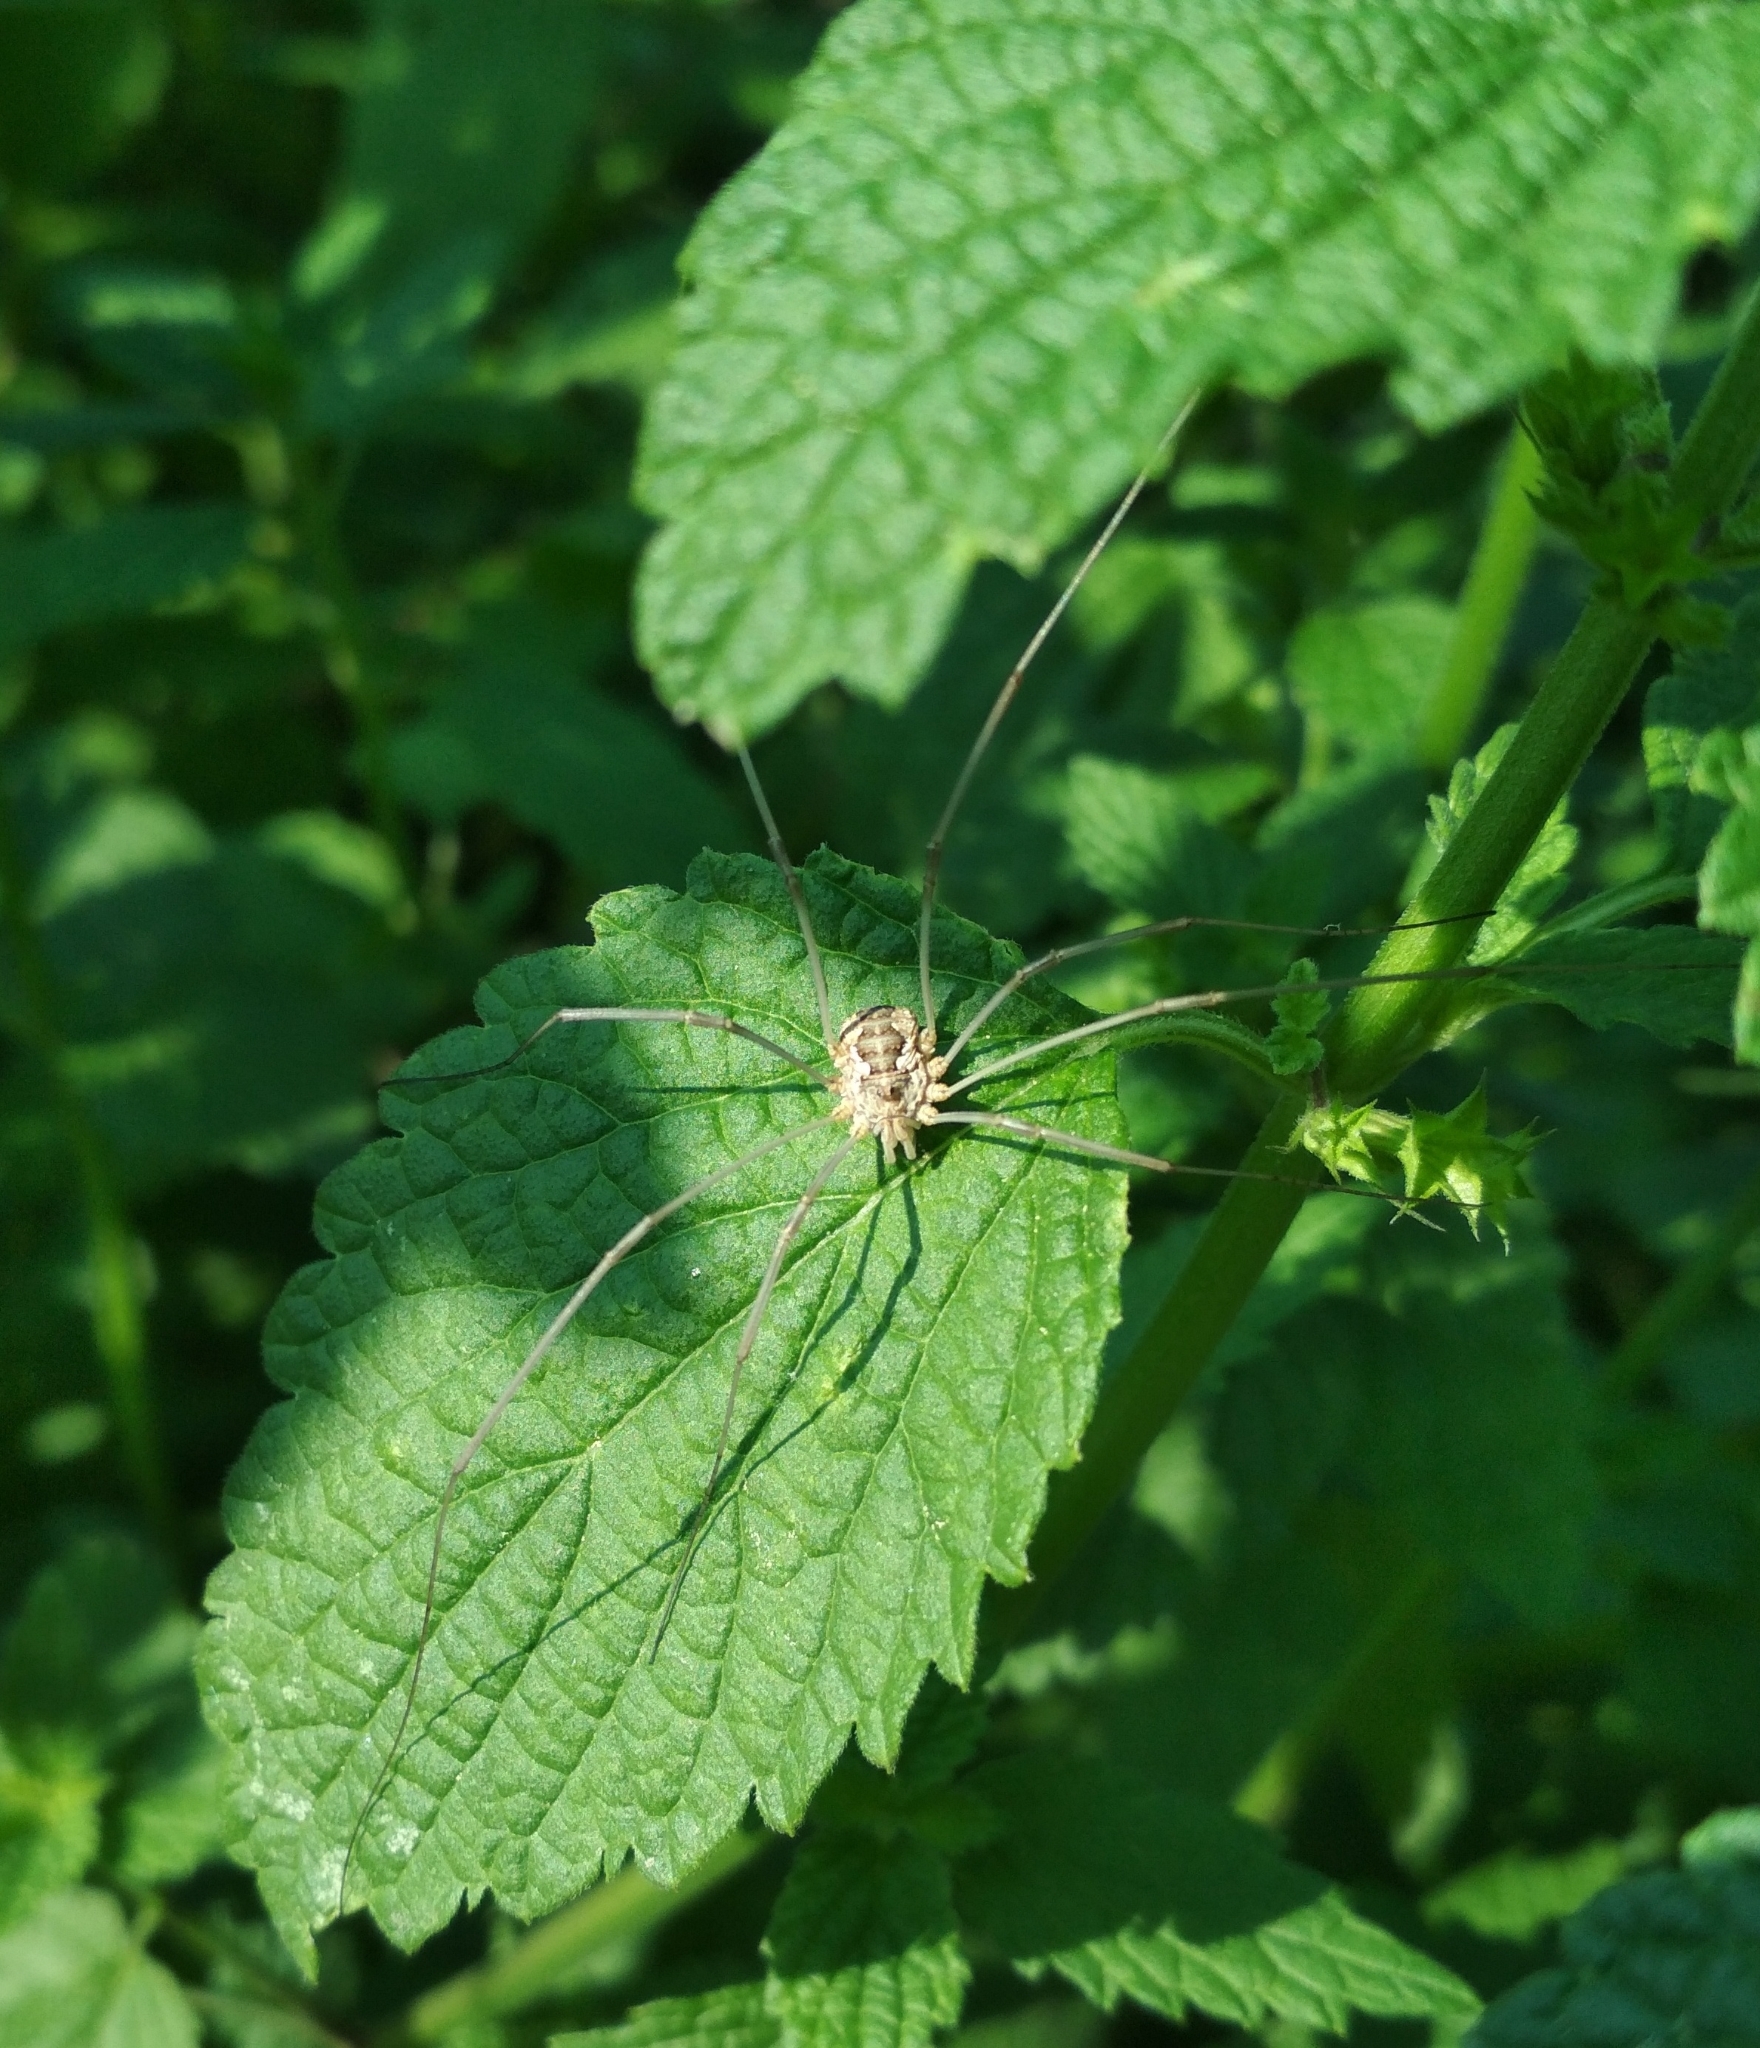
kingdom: Animalia
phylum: Arthropoda
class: Arachnida
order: Opiliones
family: Phalangiidae
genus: Phalangium
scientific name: Phalangium opilio
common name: Daddy longleg
